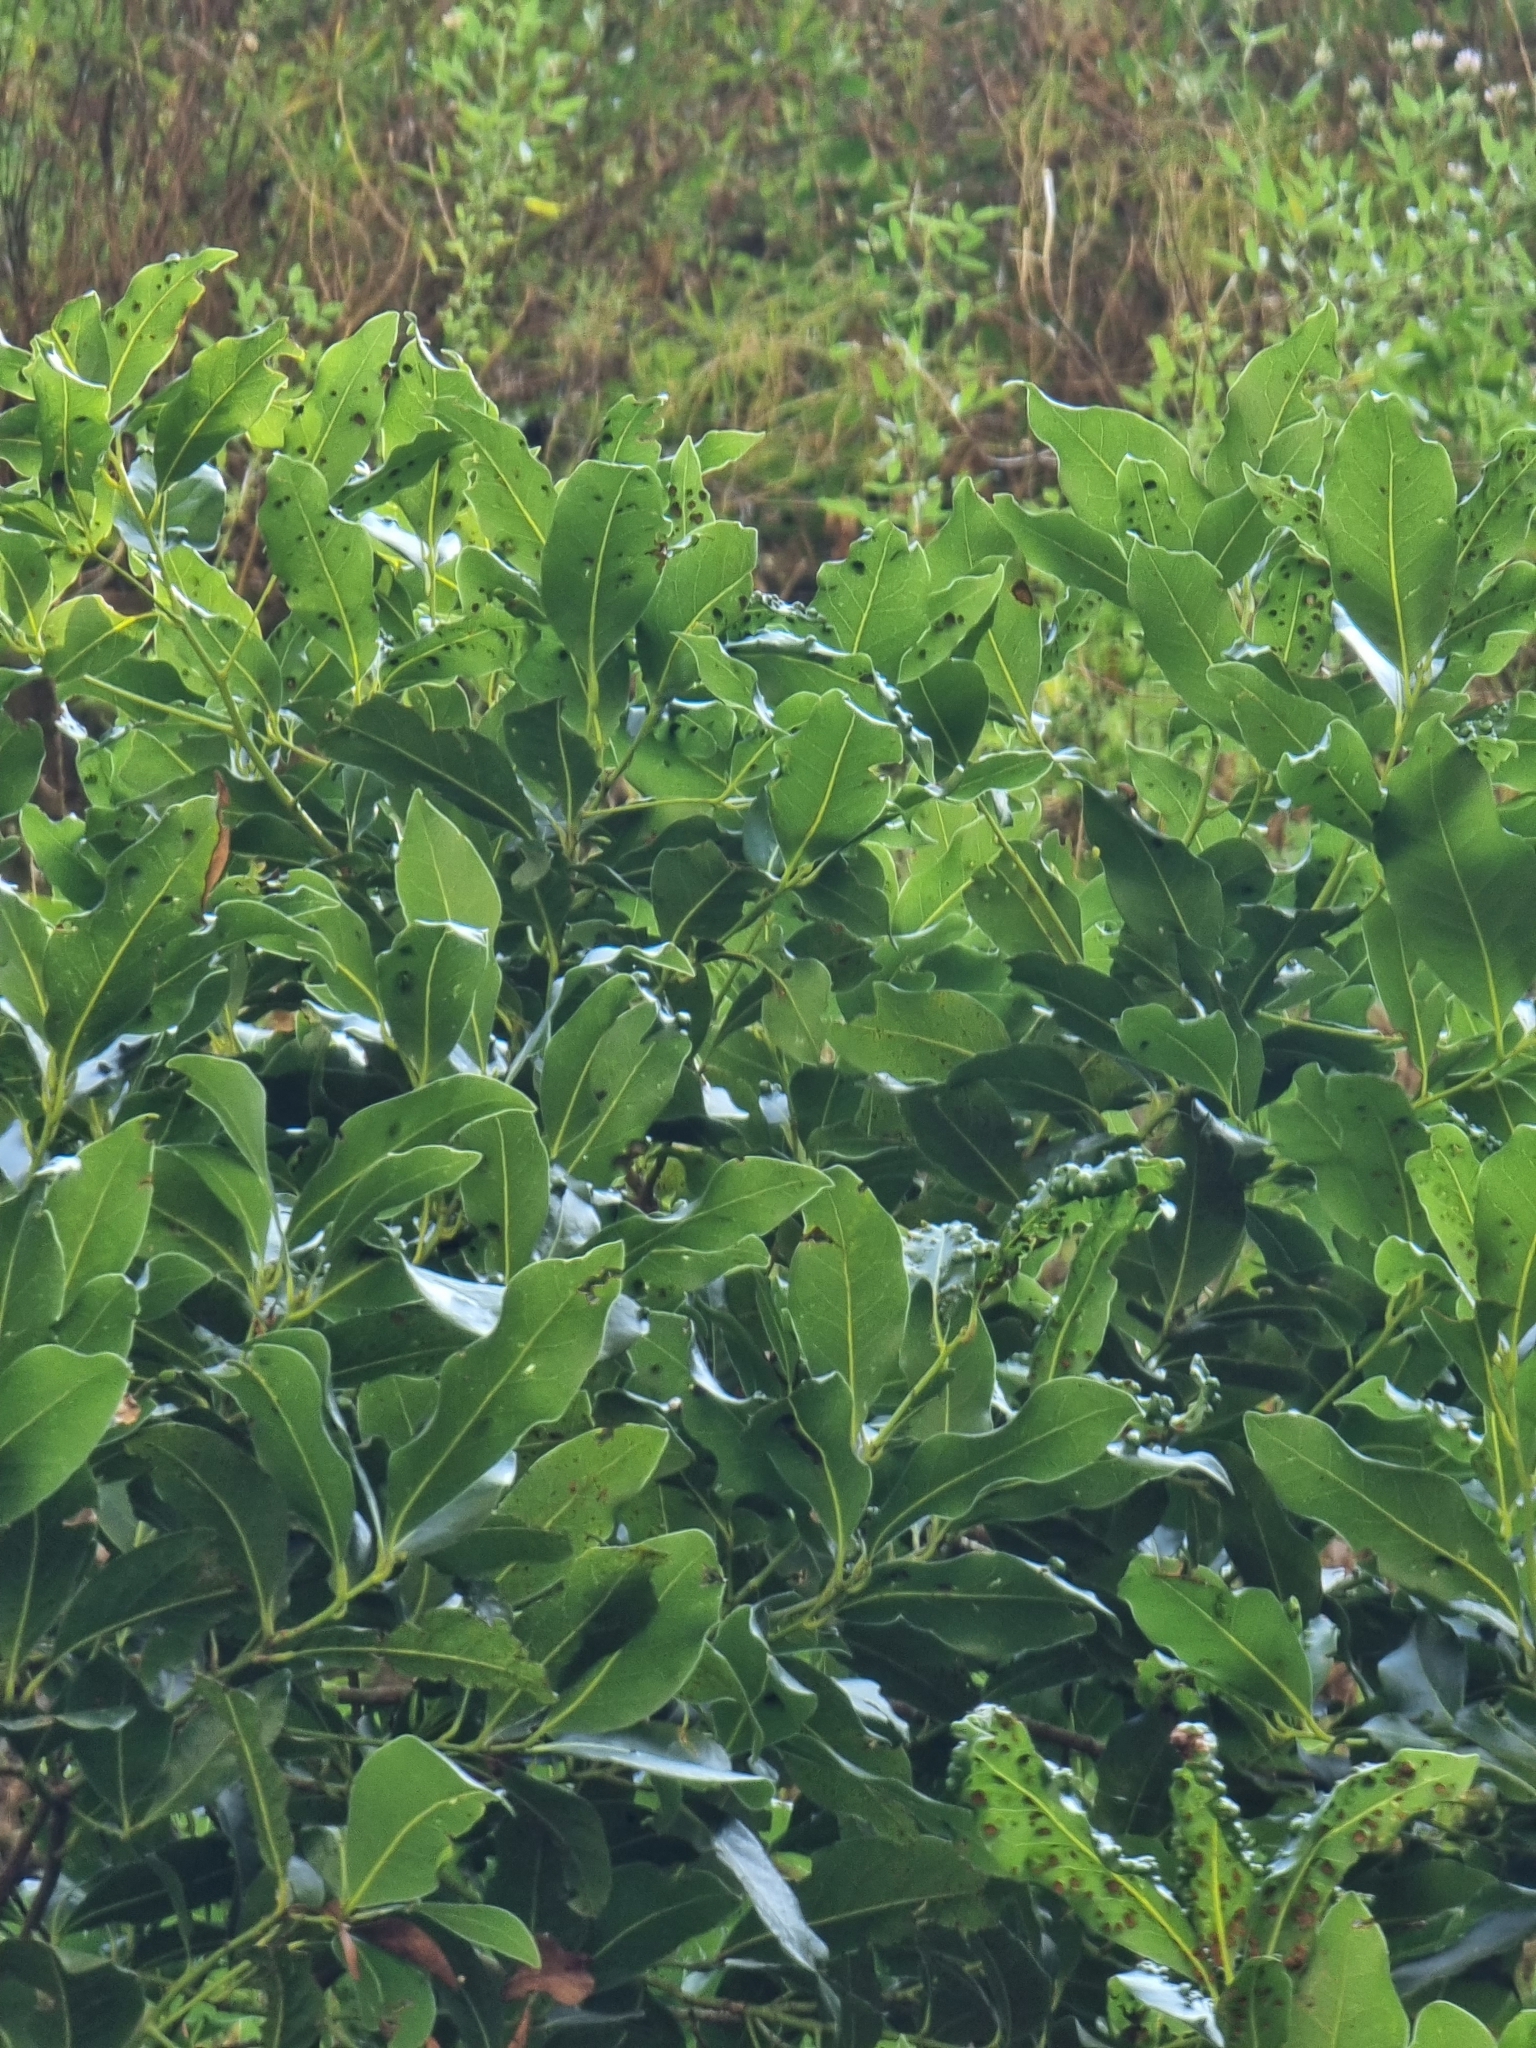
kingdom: Plantae
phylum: Tracheophyta
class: Magnoliopsida
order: Laurales
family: Lauraceae
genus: Apollonias
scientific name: Apollonias barbujana
